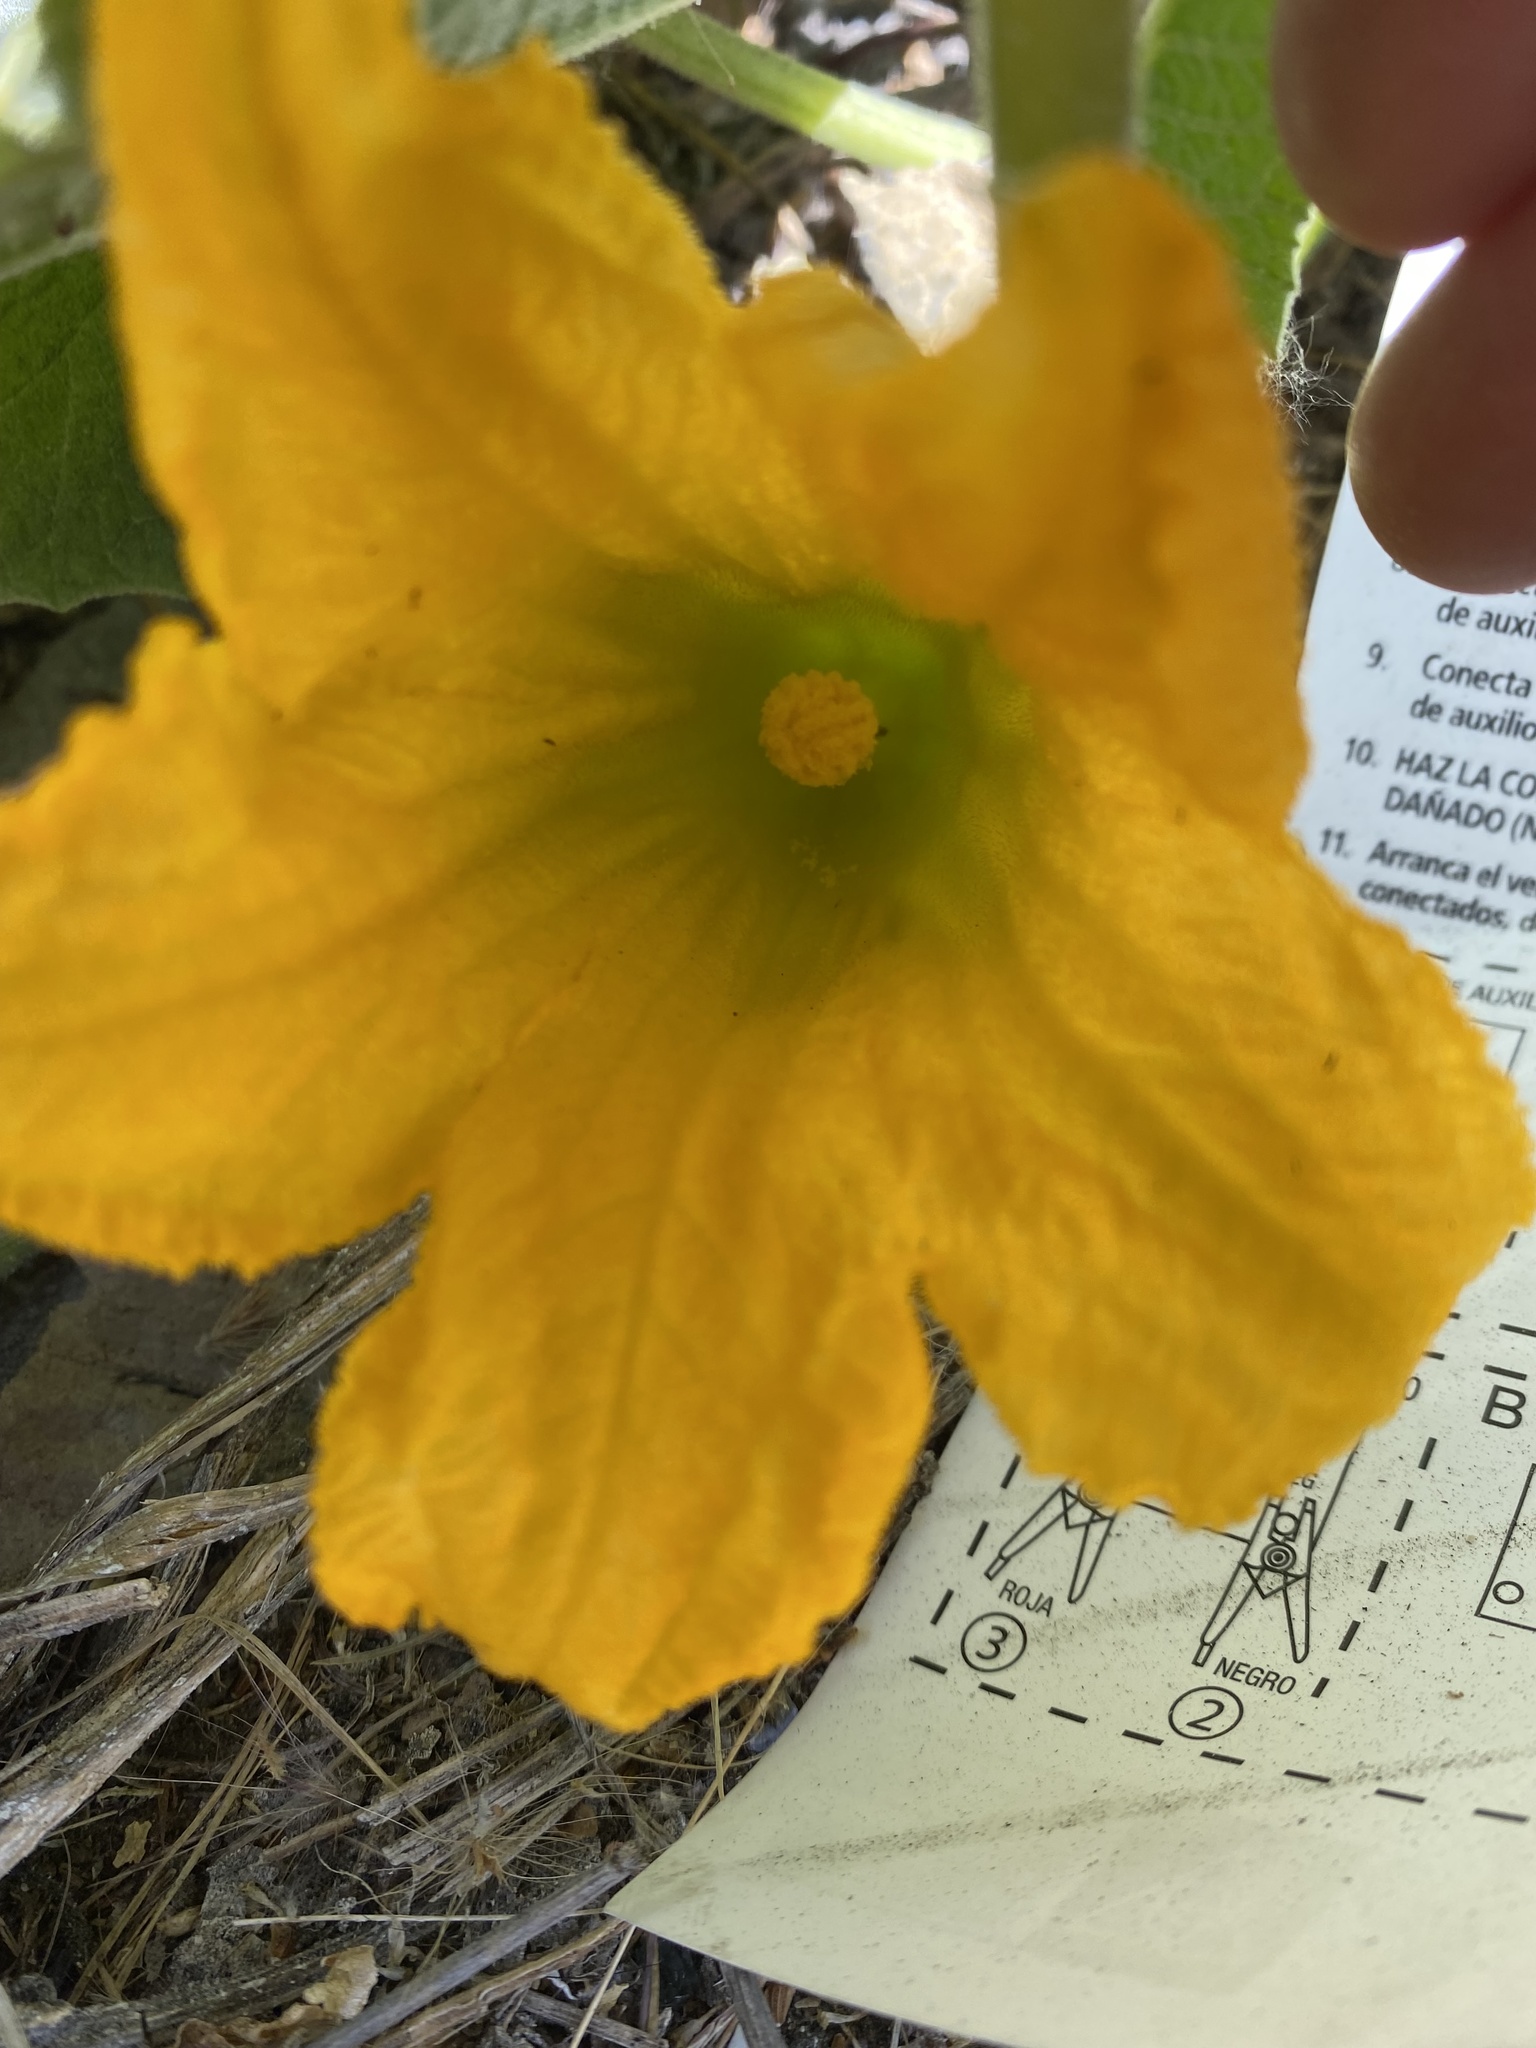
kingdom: Plantae
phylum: Tracheophyta
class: Magnoliopsida
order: Cucurbitales
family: Cucurbitaceae
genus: Cucurbita
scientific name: Cucurbita foetidissima
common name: Buffalo gourd
